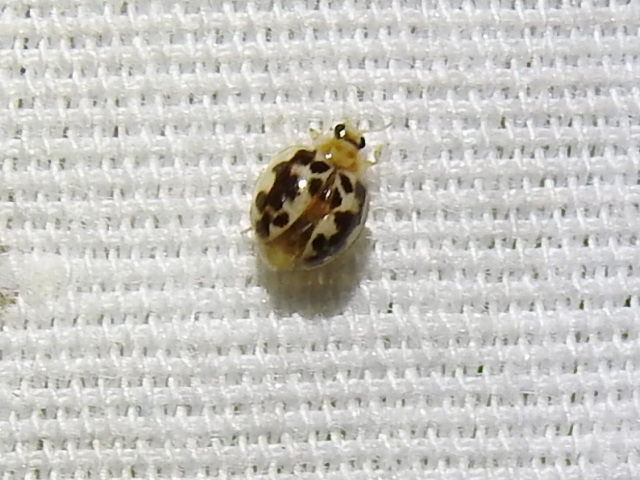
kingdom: Animalia
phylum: Arthropoda
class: Insecta
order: Coleoptera
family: Coccinellidae
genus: Psyllobora
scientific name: Psyllobora renifer
